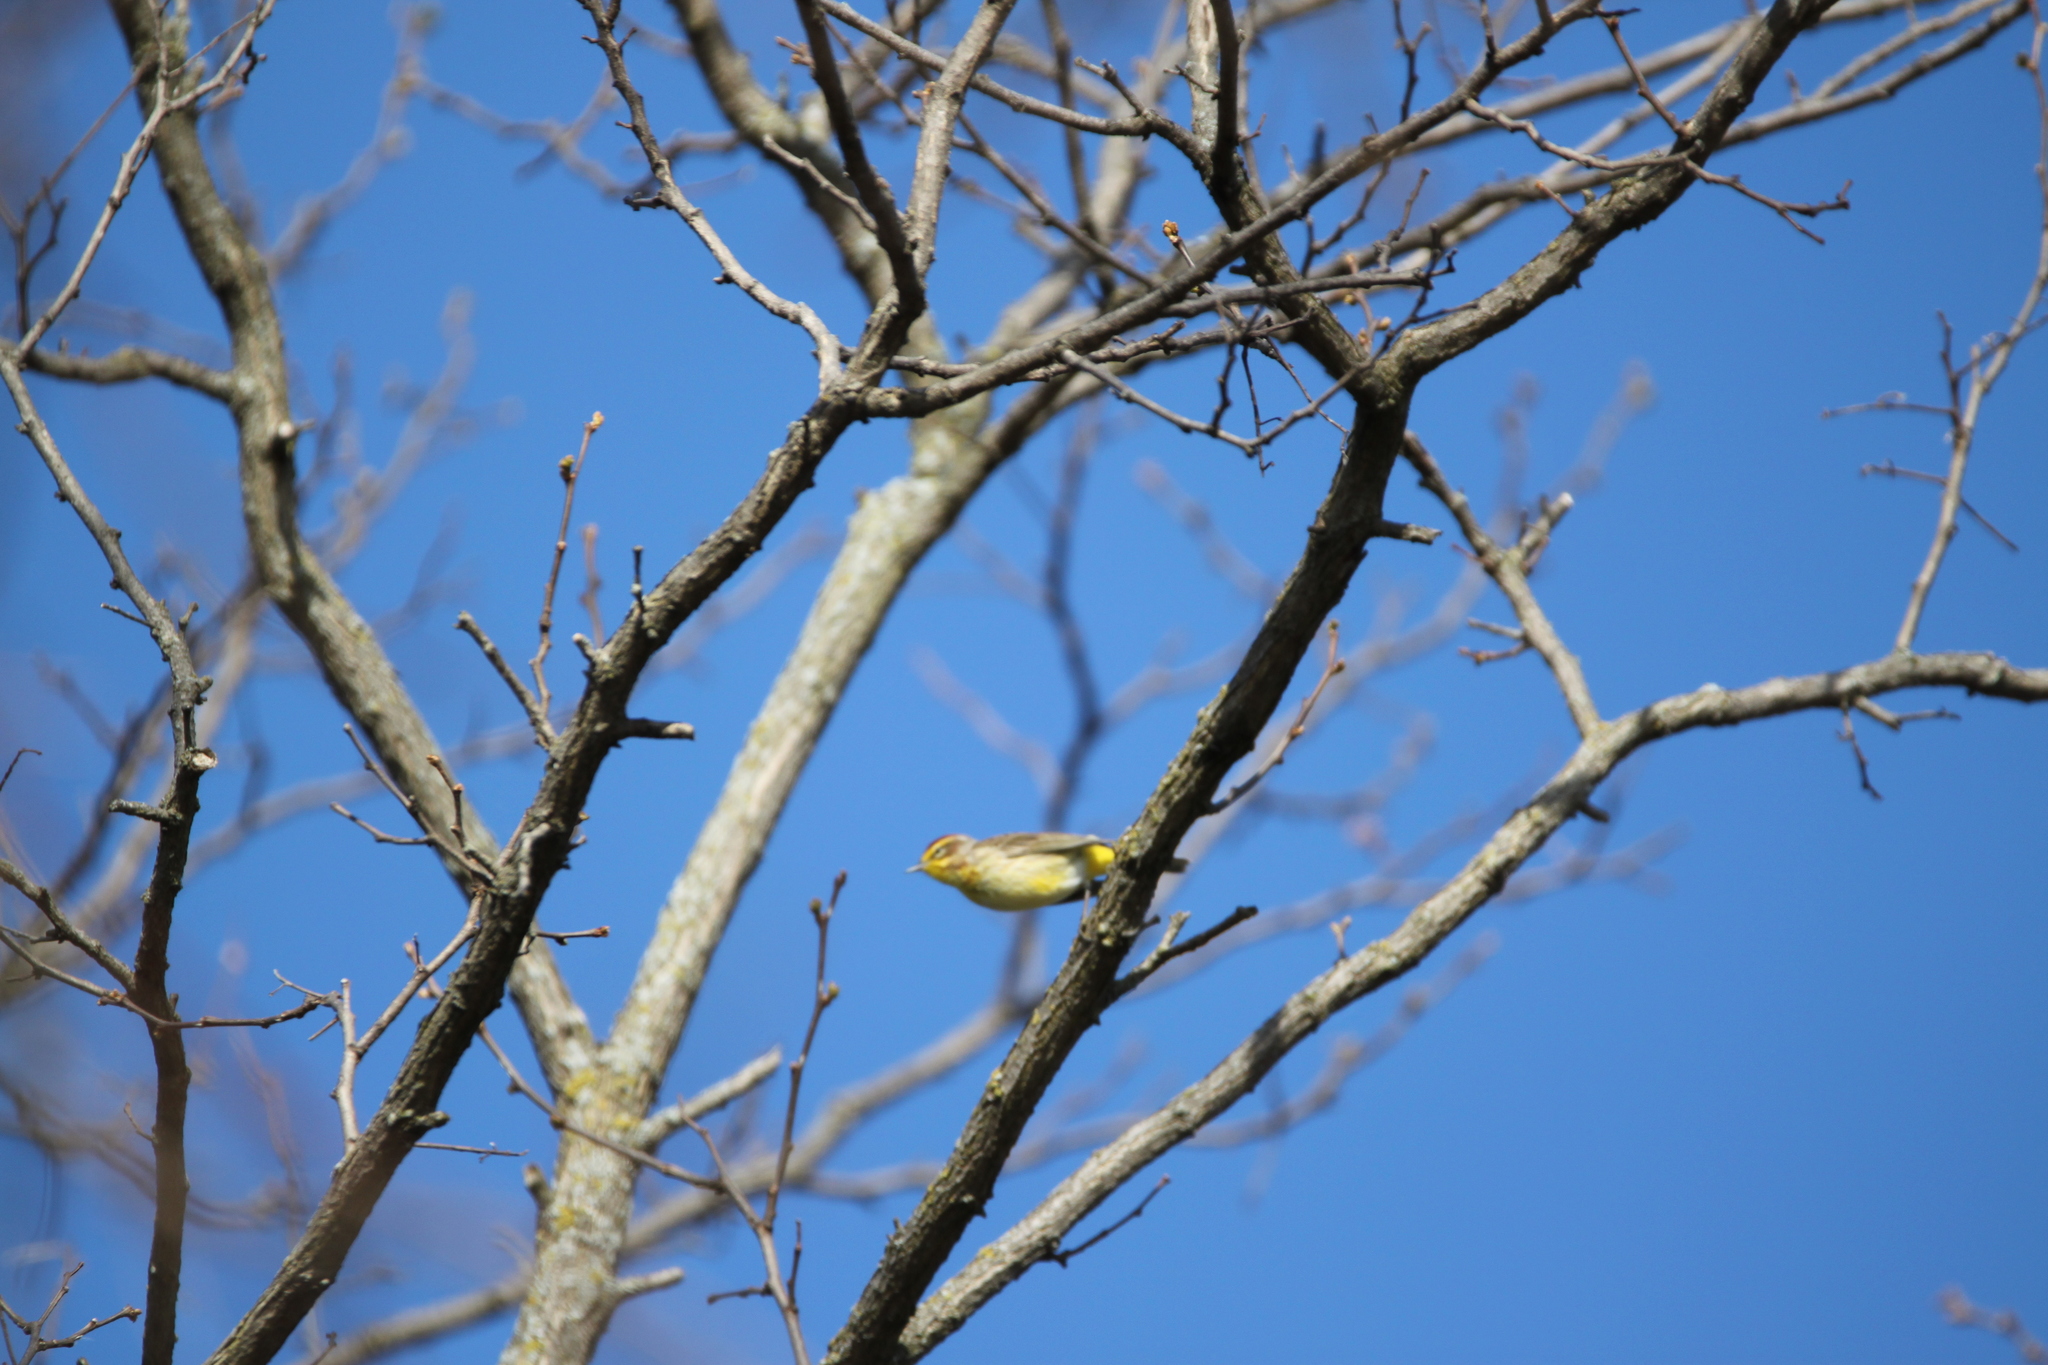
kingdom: Animalia
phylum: Chordata
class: Aves
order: Passeriformes
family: Parulidae
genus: Setophaga
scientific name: Setophaga palmarum
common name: Palm warbler
